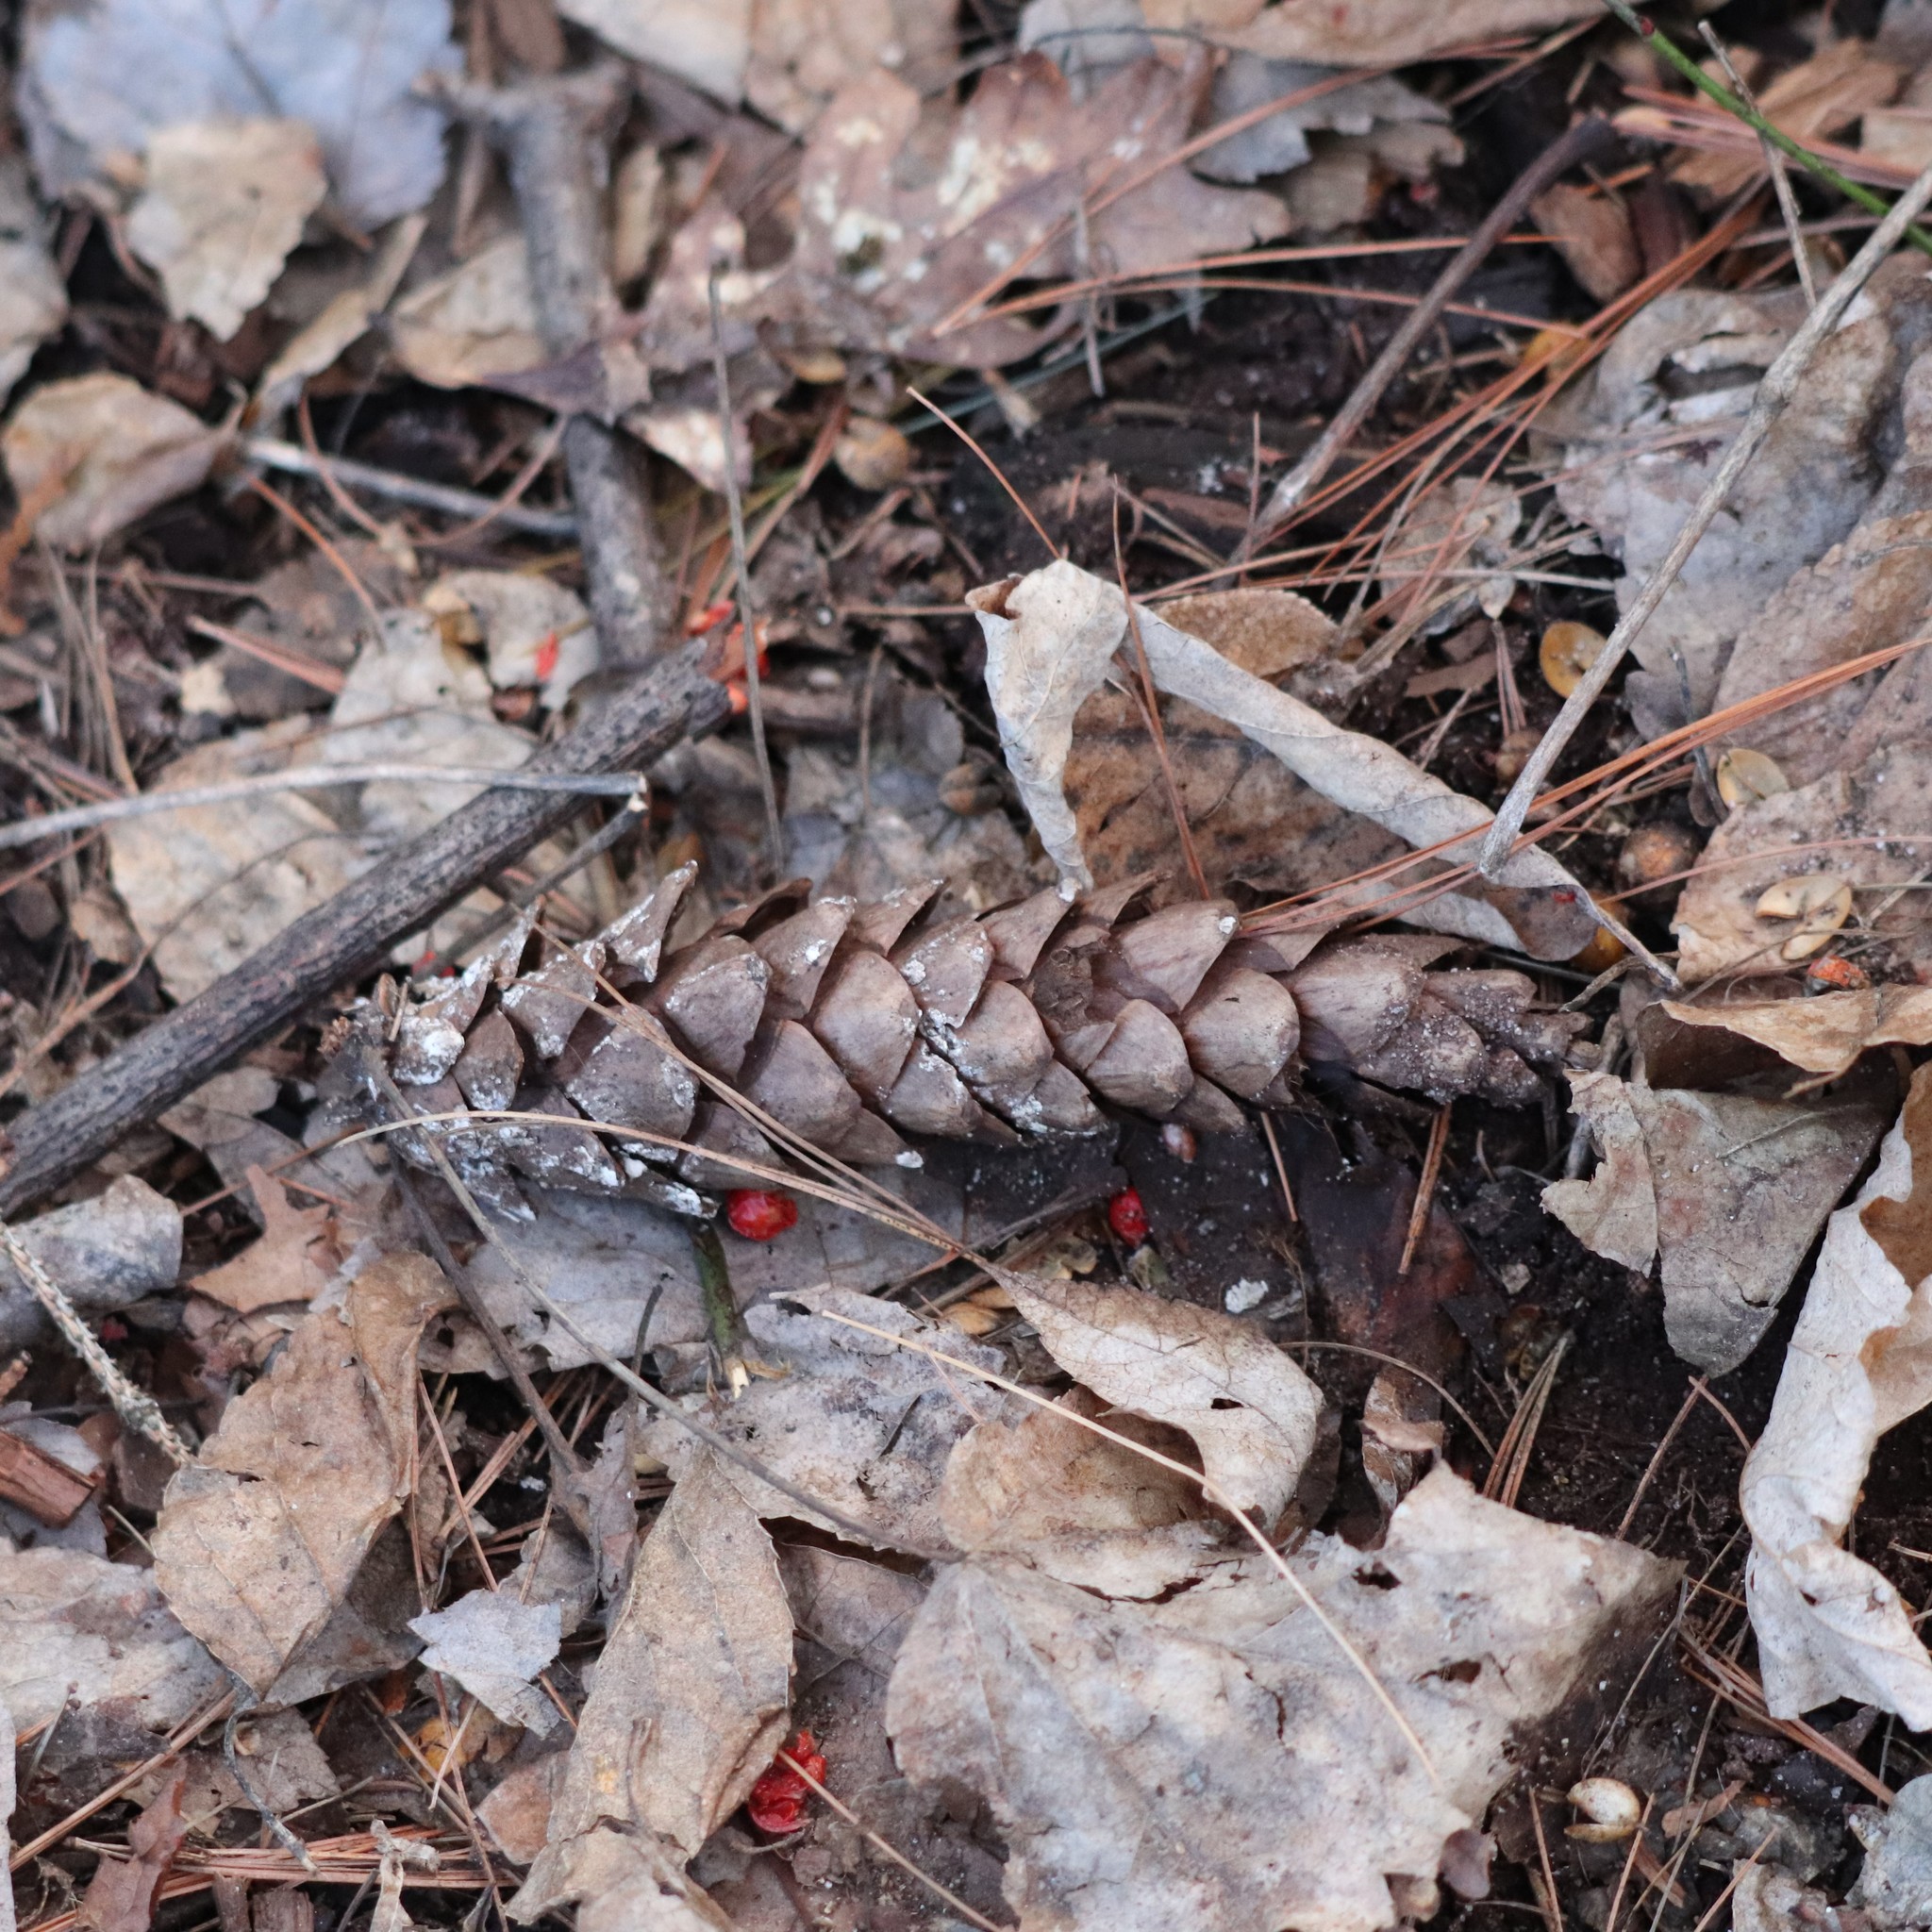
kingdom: Plantae
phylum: Tracheophyta
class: Pinopsida
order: Pinales
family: Pinaceae
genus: Pinus
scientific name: Pinus strobus
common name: Weymouth pine
